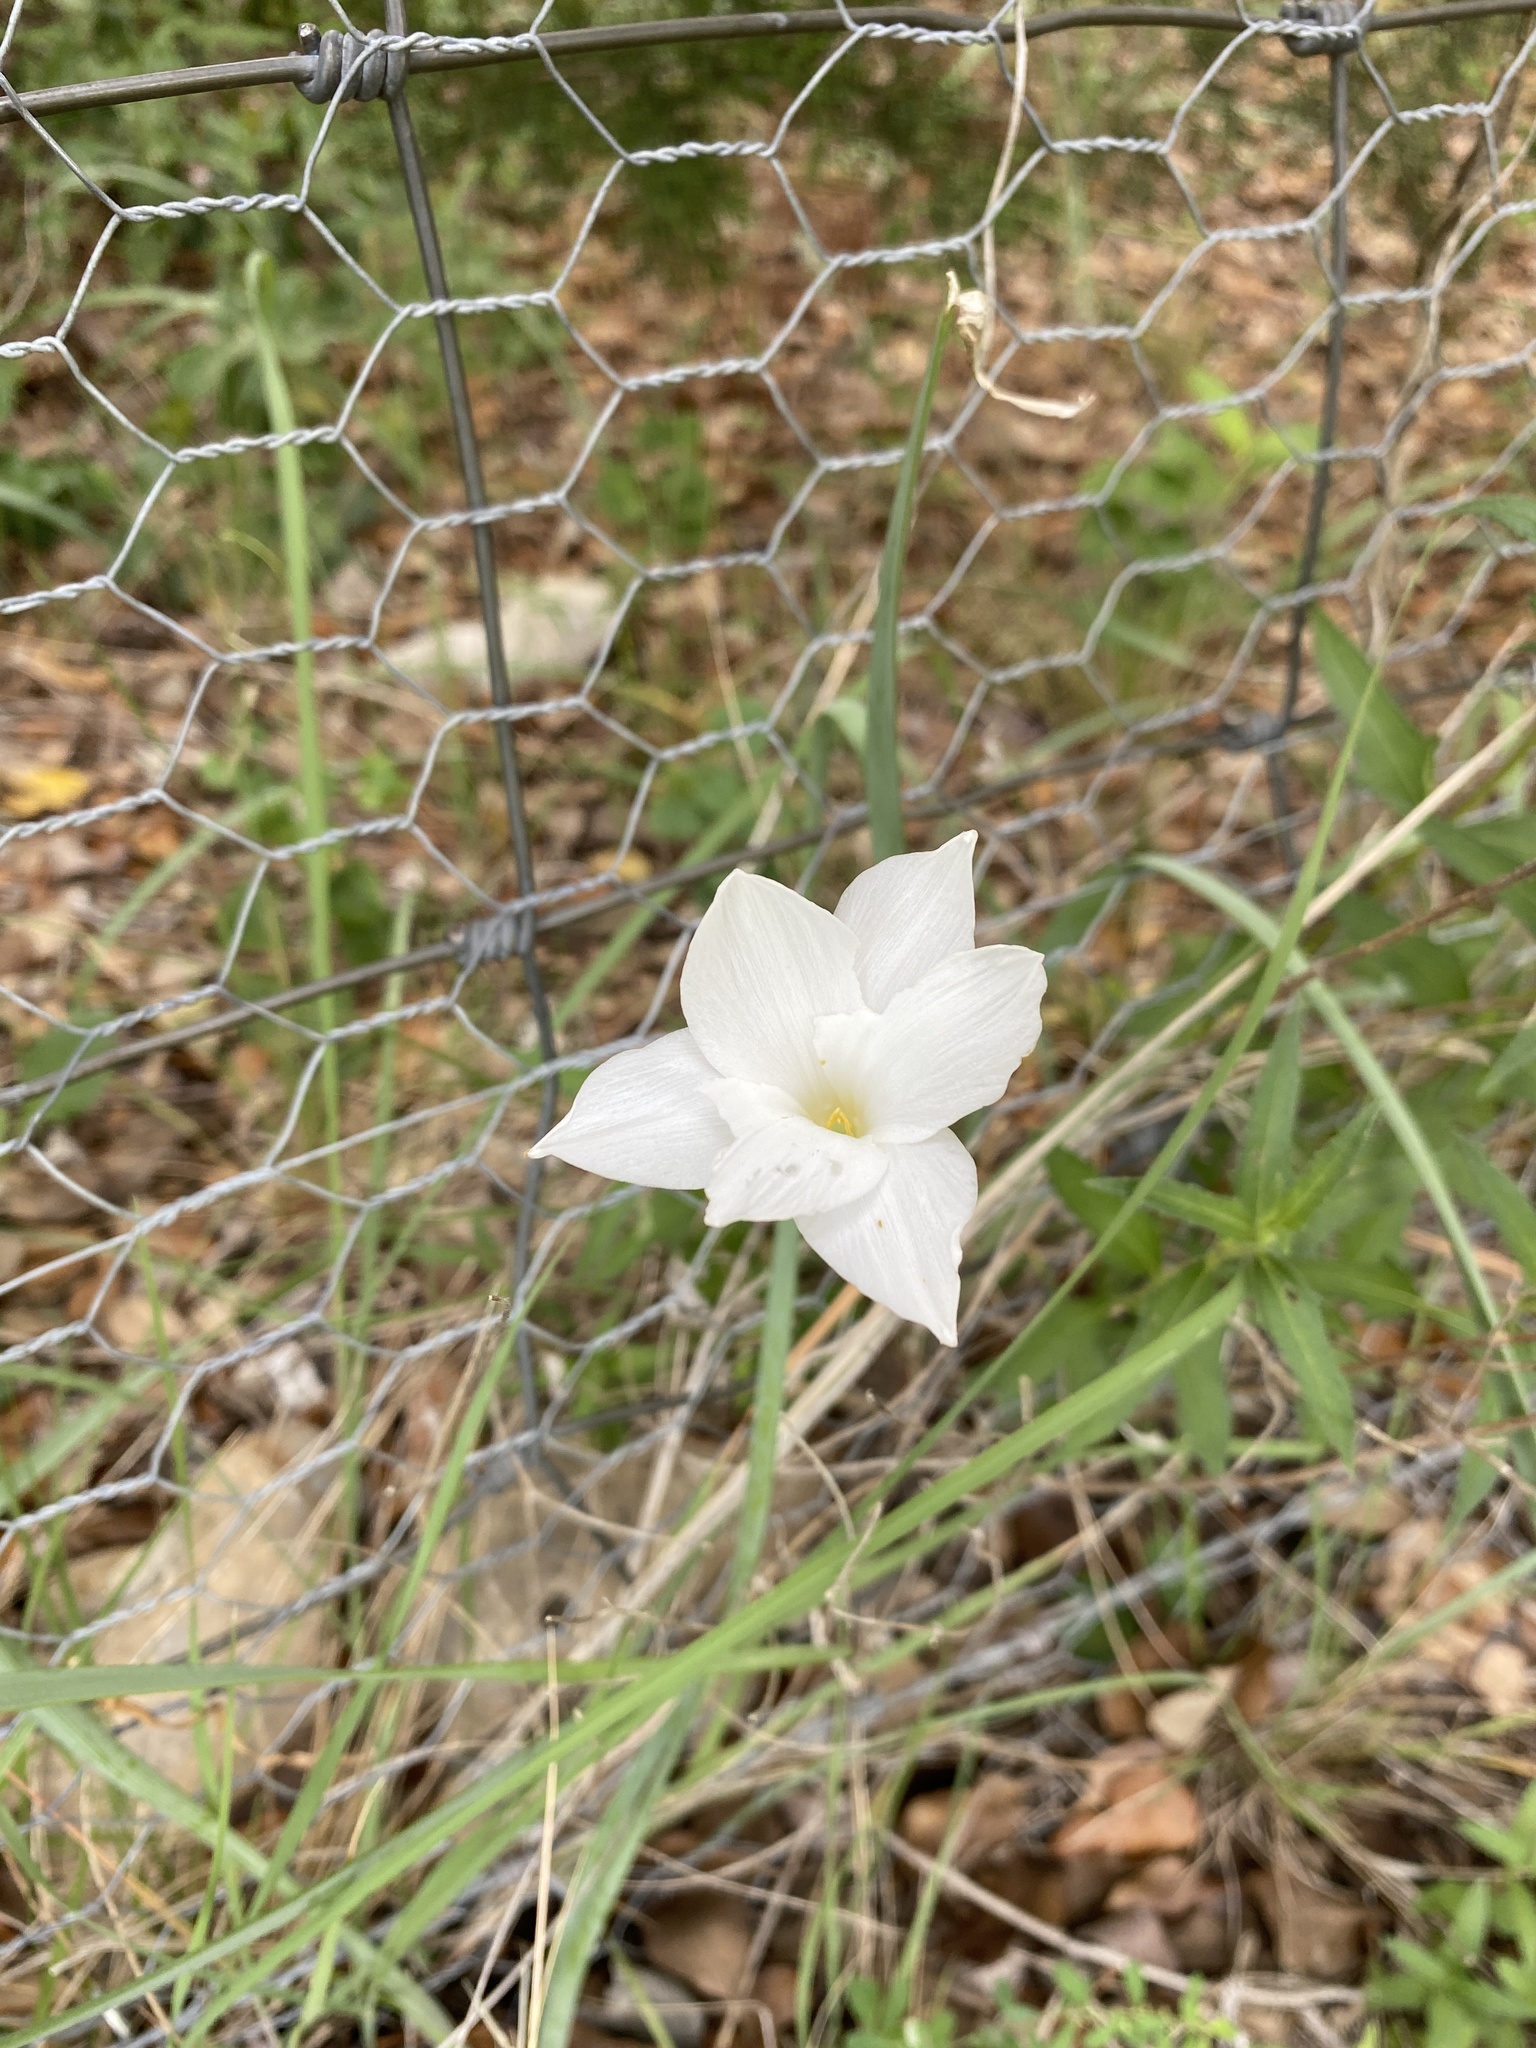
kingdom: Plantae
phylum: Tracheophyta
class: Liliopsida
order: Asparagales
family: Amaryllidaceae
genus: Zephyranthes
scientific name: Zephyranthes drummondii
